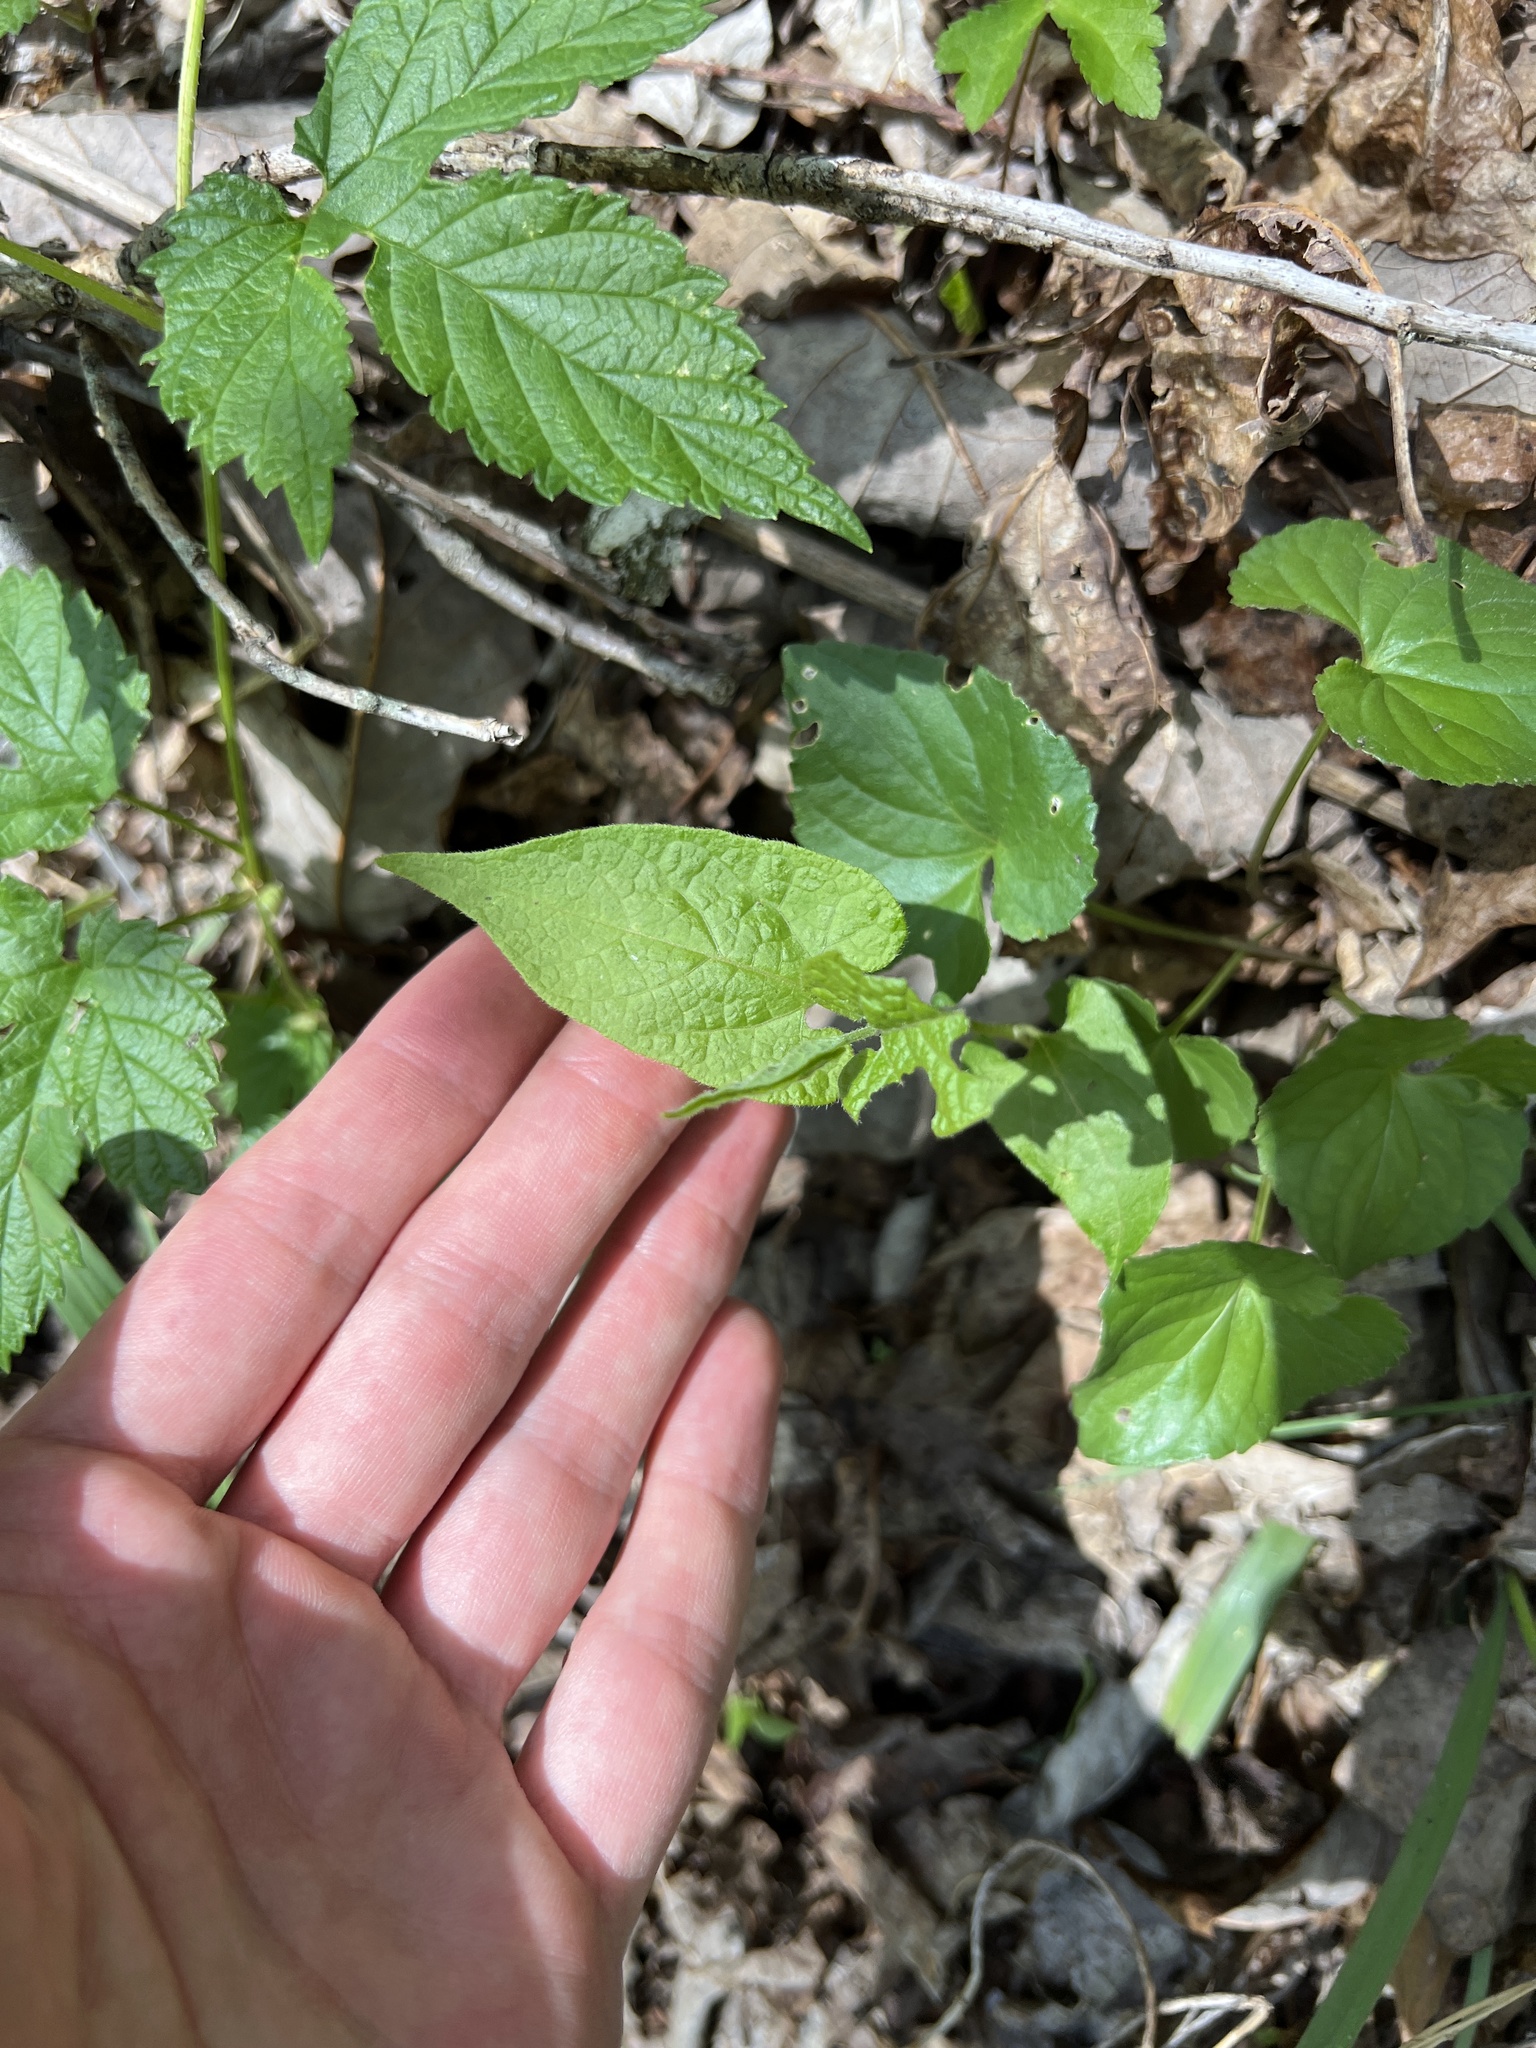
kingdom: Plantae
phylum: Tracheophyta
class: Magnoliopsida
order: Piperales
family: Aristolochiaceae
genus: Endodeca
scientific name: Endodeca serpentaria
